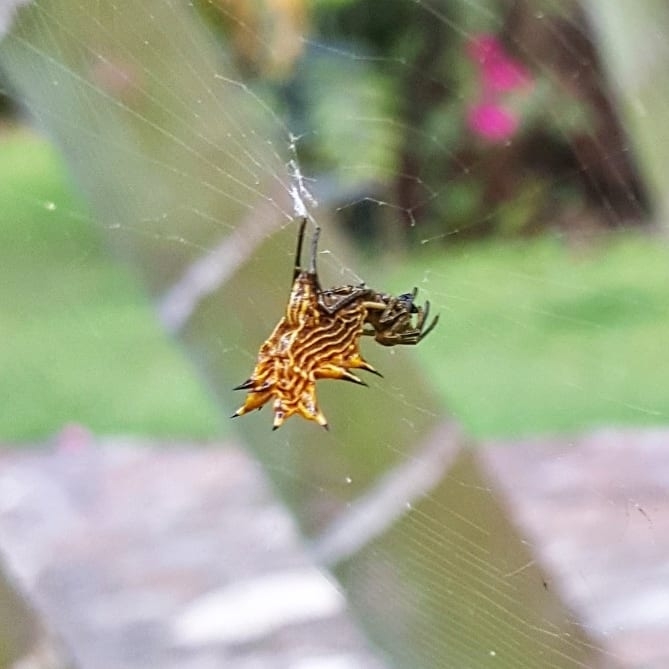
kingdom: Animalia
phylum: Arthropoda
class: Arachnida
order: Araneae
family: Araneidae
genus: Micrathena
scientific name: Micrathena gracilis
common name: Orb weavers
